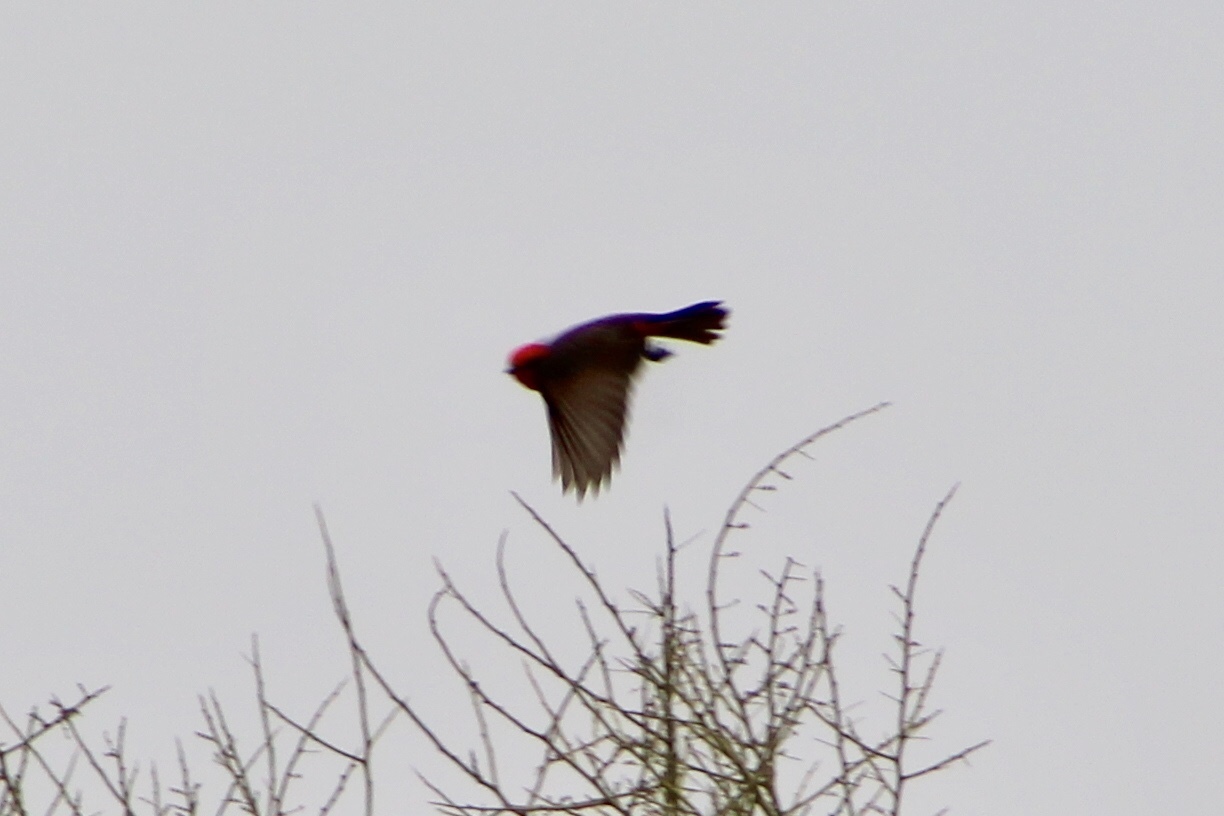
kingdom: Animalia
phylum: Chordata
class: Aves
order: Passeriformes
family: Tyrannidae
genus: Pyrocephalus
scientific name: Pyrocephalus rubinus
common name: Vermilion flycatcher
